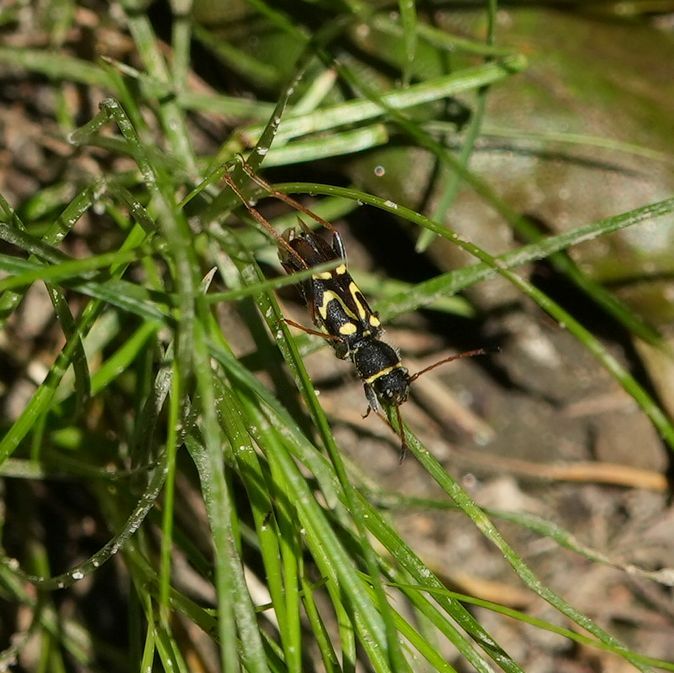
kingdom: Animalia
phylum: Arthropoda
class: Insecta
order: Coleoptera
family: Cerambycidae
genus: Clytus
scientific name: Clytus ruricola
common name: Round-necked longhorn beetle
